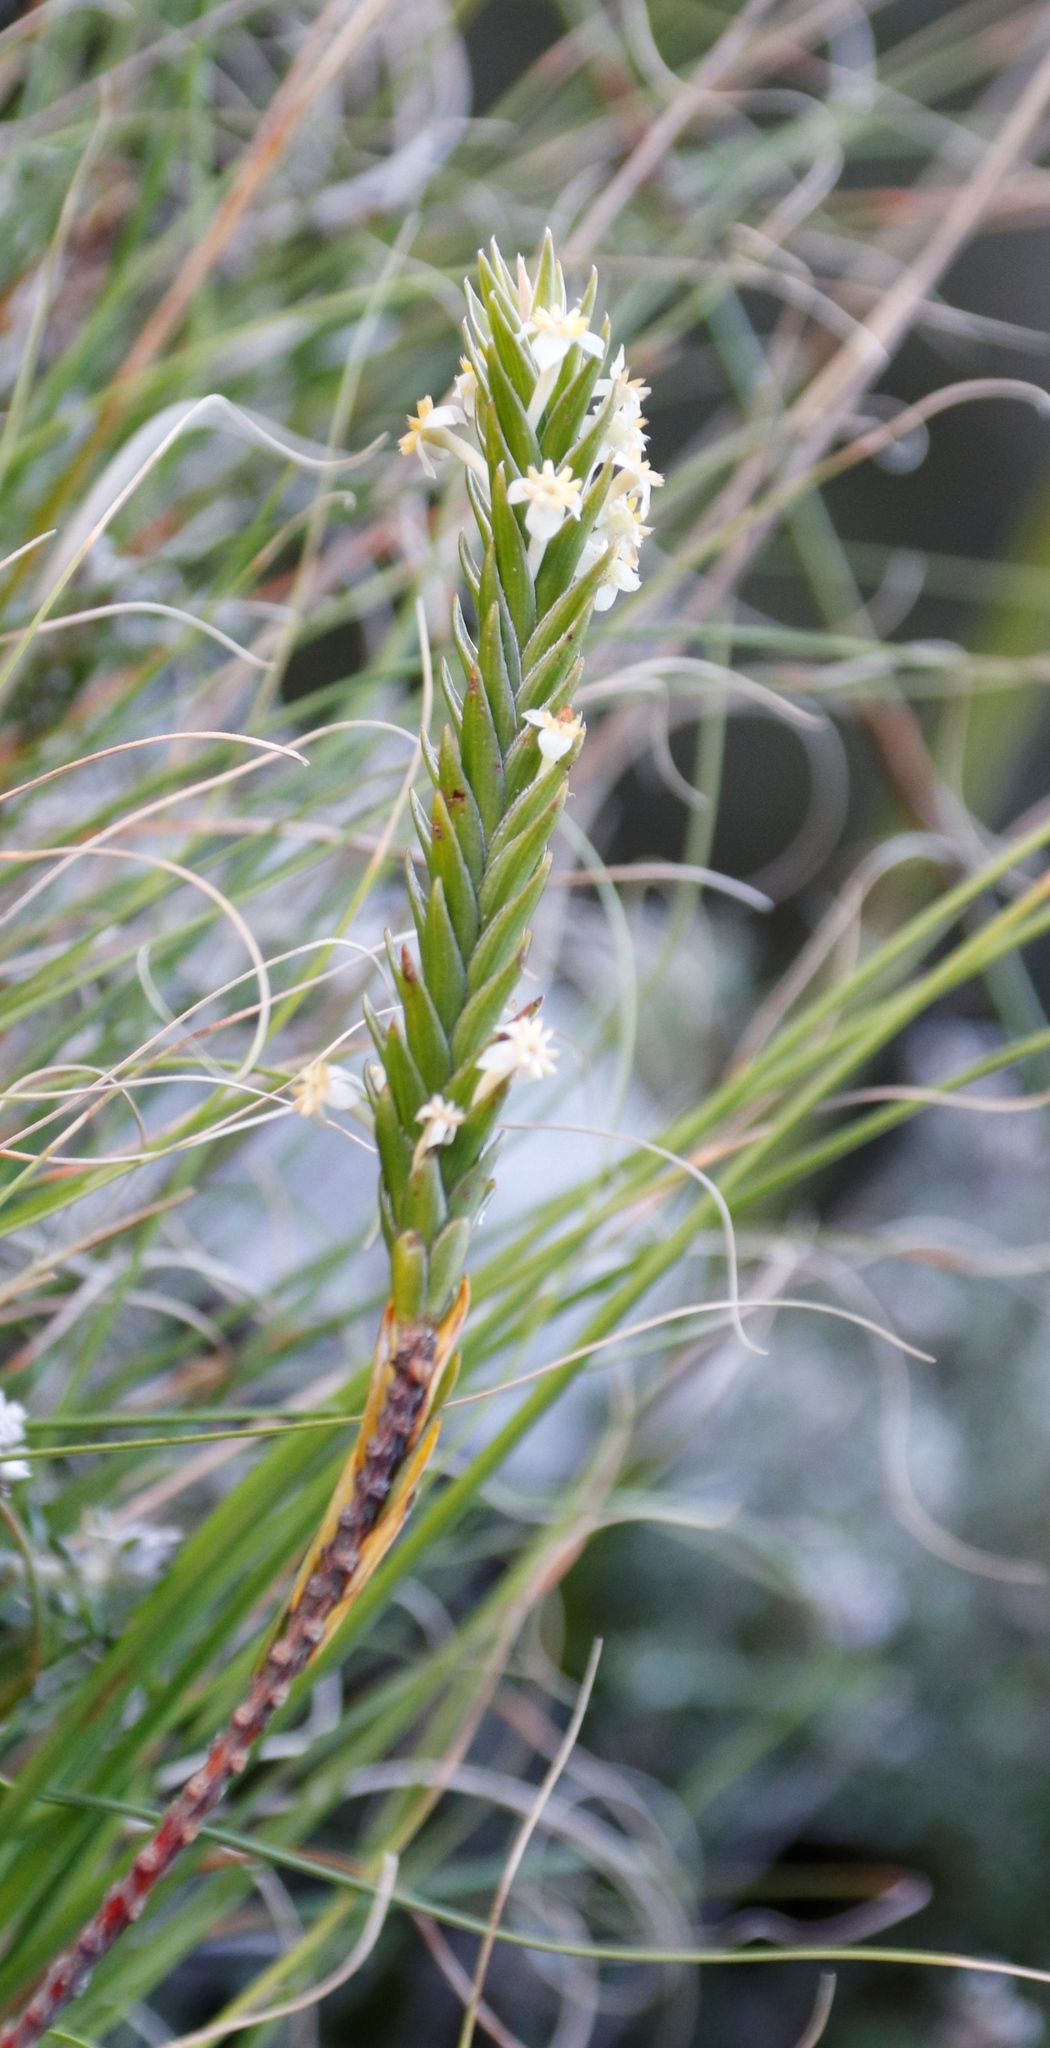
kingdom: Plantae
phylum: Tracheophyta
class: Magnoliopsida
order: Malvales
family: Thymelaeaceae
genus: Struthiola
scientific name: Struthiola ciliata
